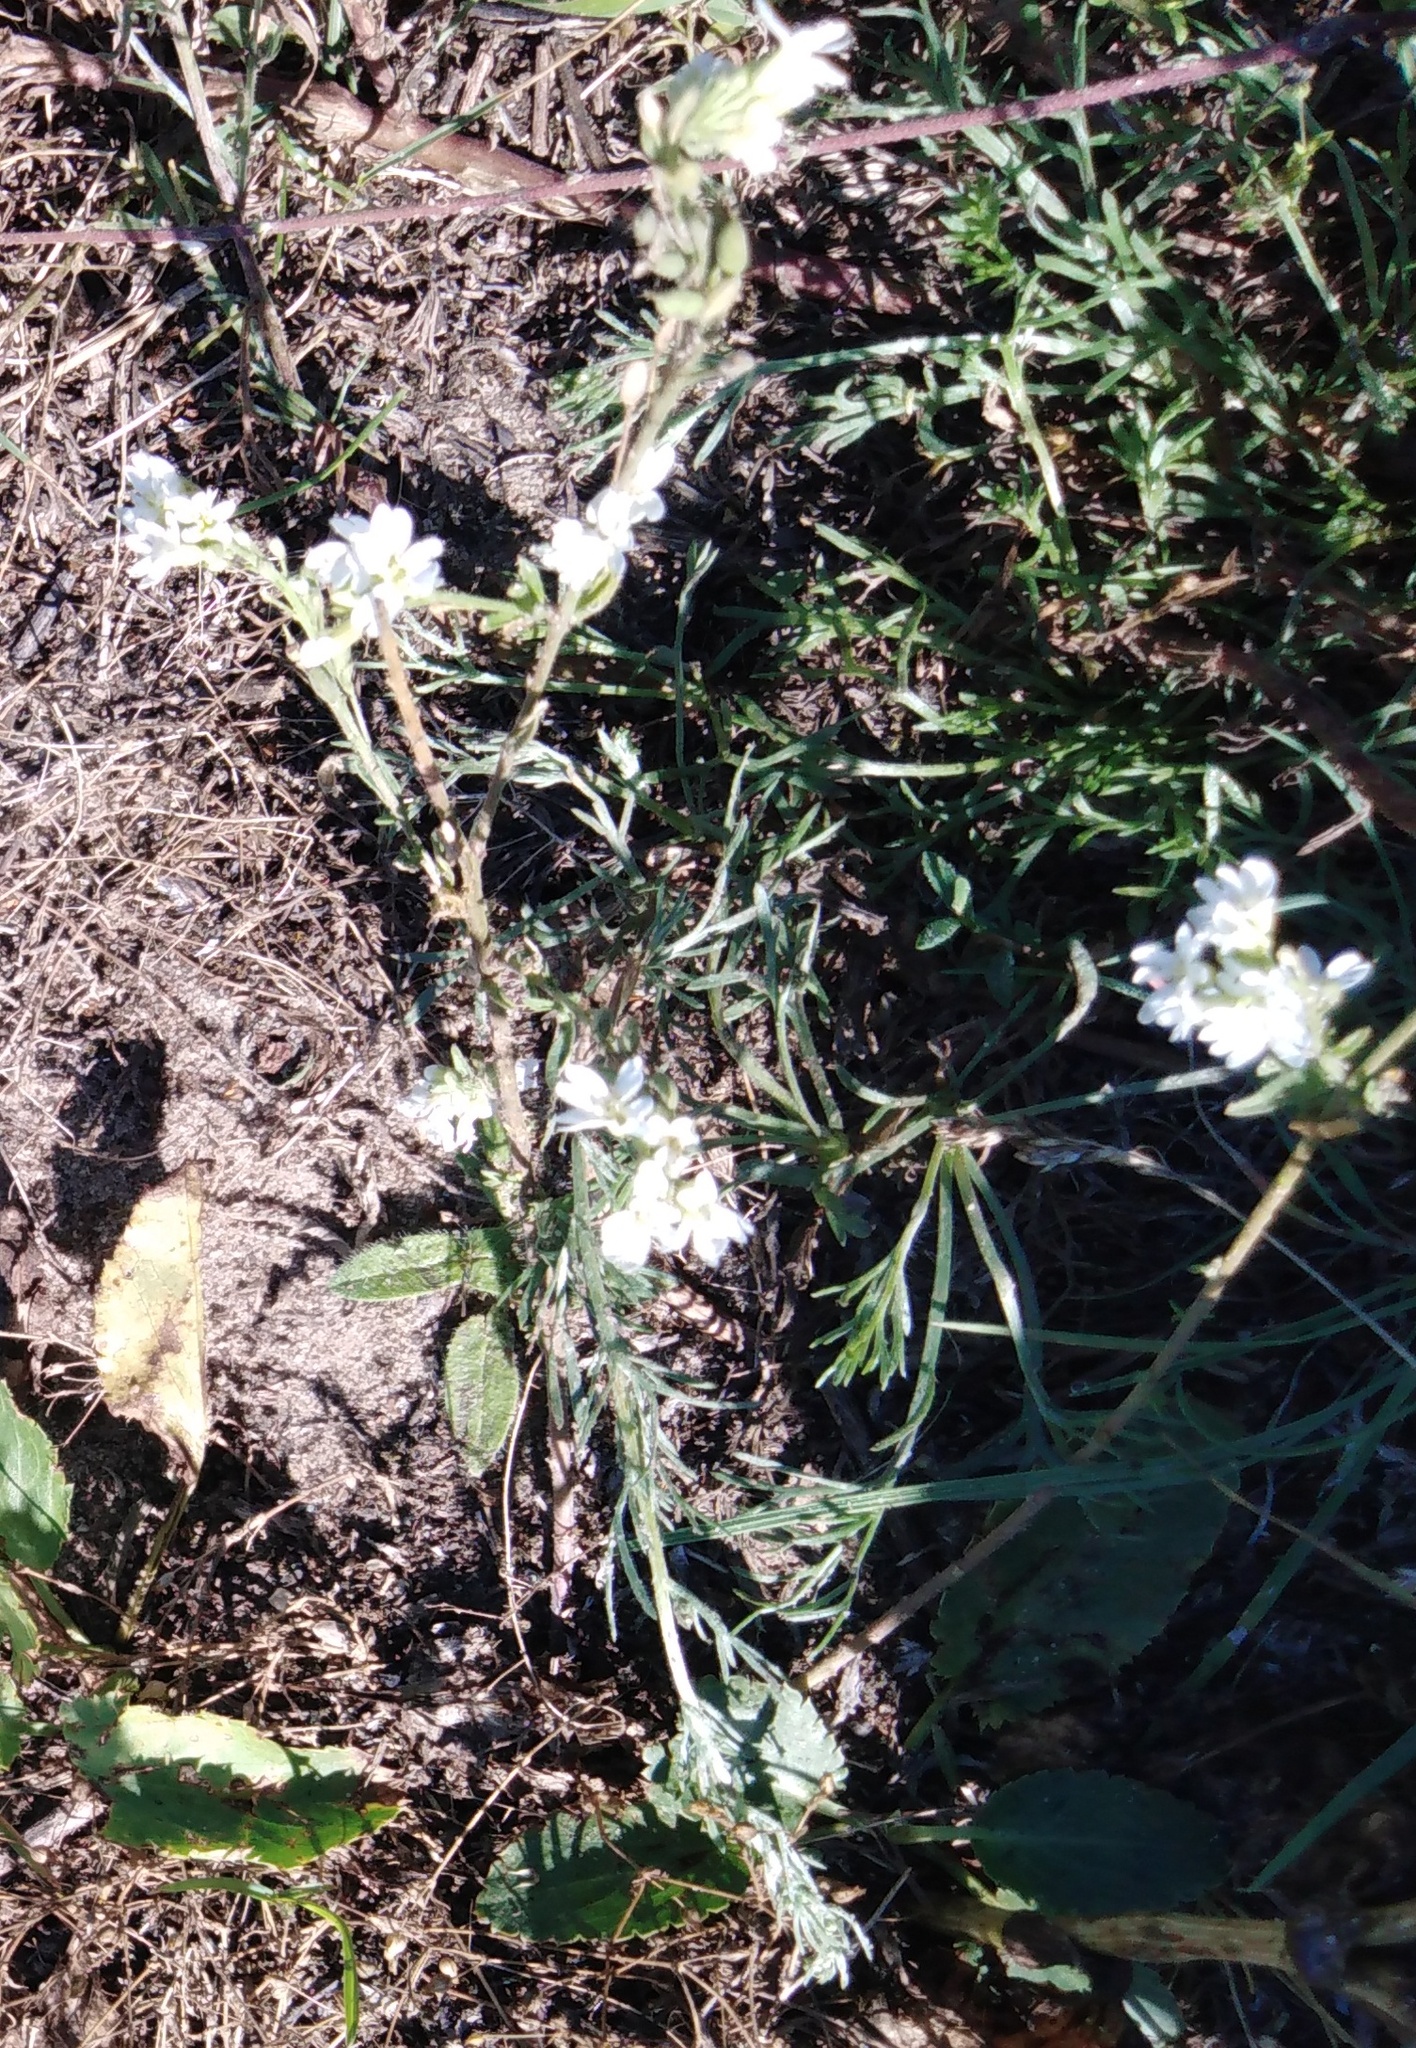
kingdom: Plantae
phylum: Tracheophyta
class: Magnoliopsida
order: Brassicales
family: Brassicaceae
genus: Berteroa
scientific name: Berteroa incana
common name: Hoary alison
